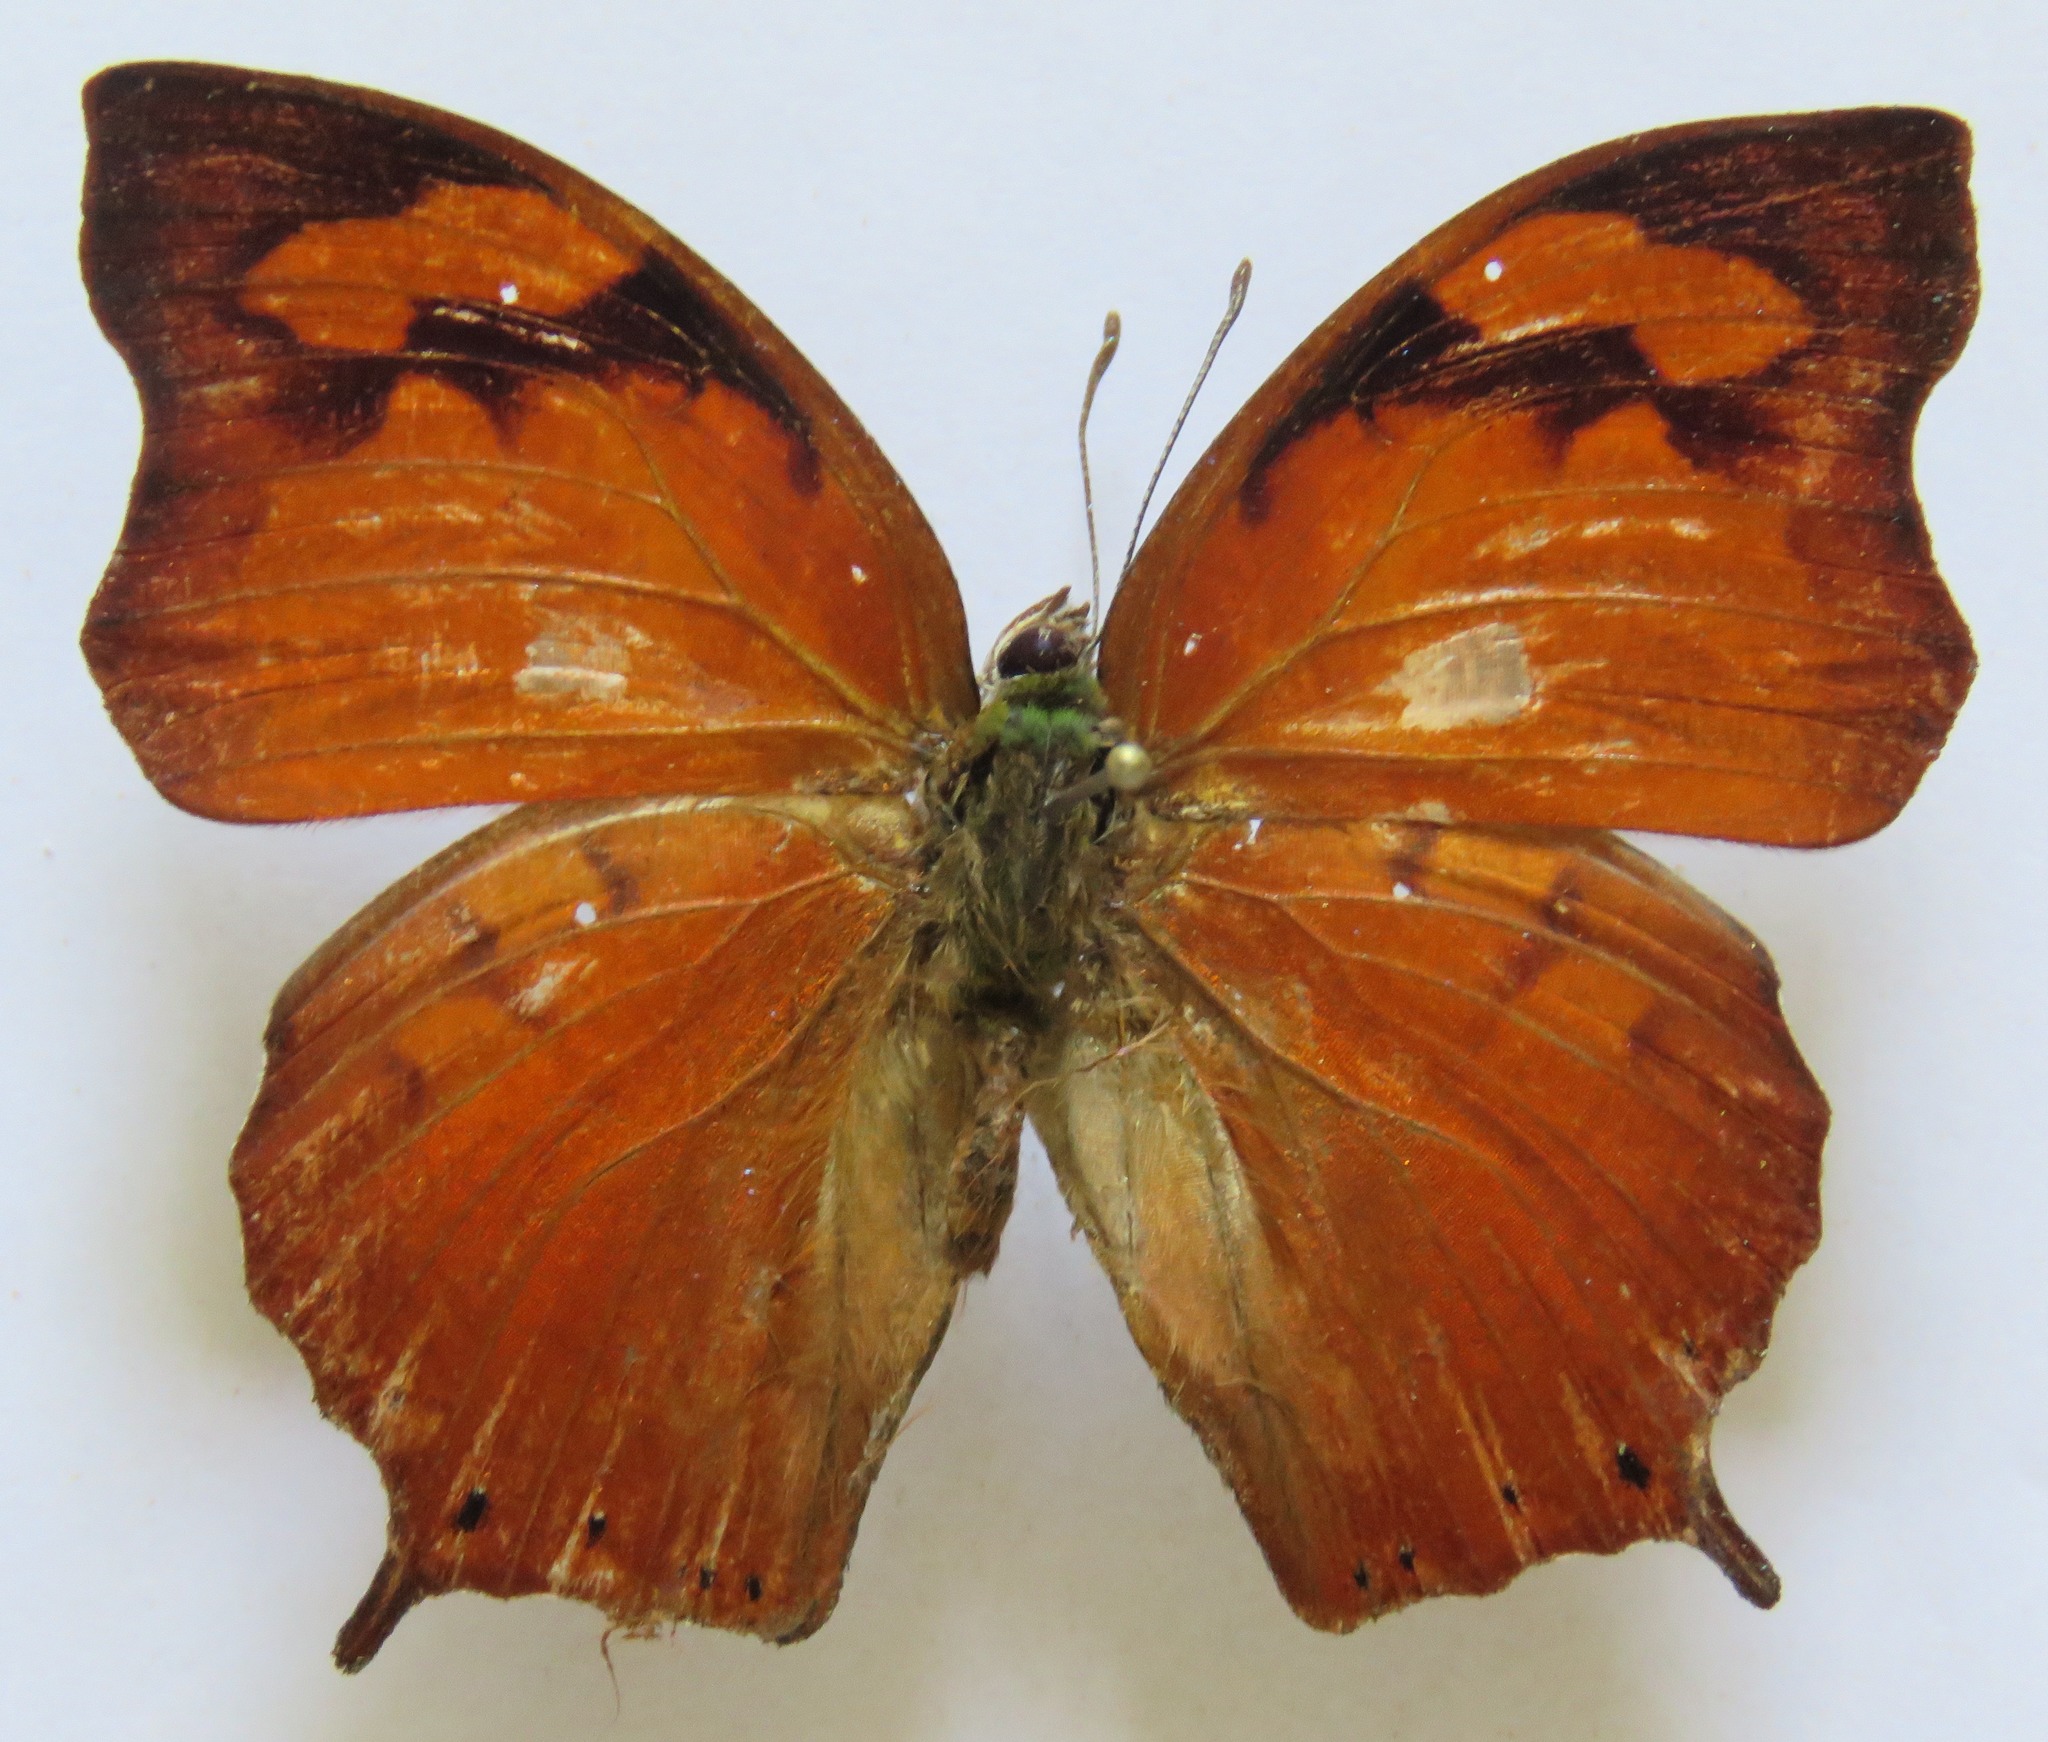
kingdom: Animalia
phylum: Arthropoda
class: Insecta
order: Lepidoptera
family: Nymphalidae
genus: Fountainea
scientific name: Fountainea
